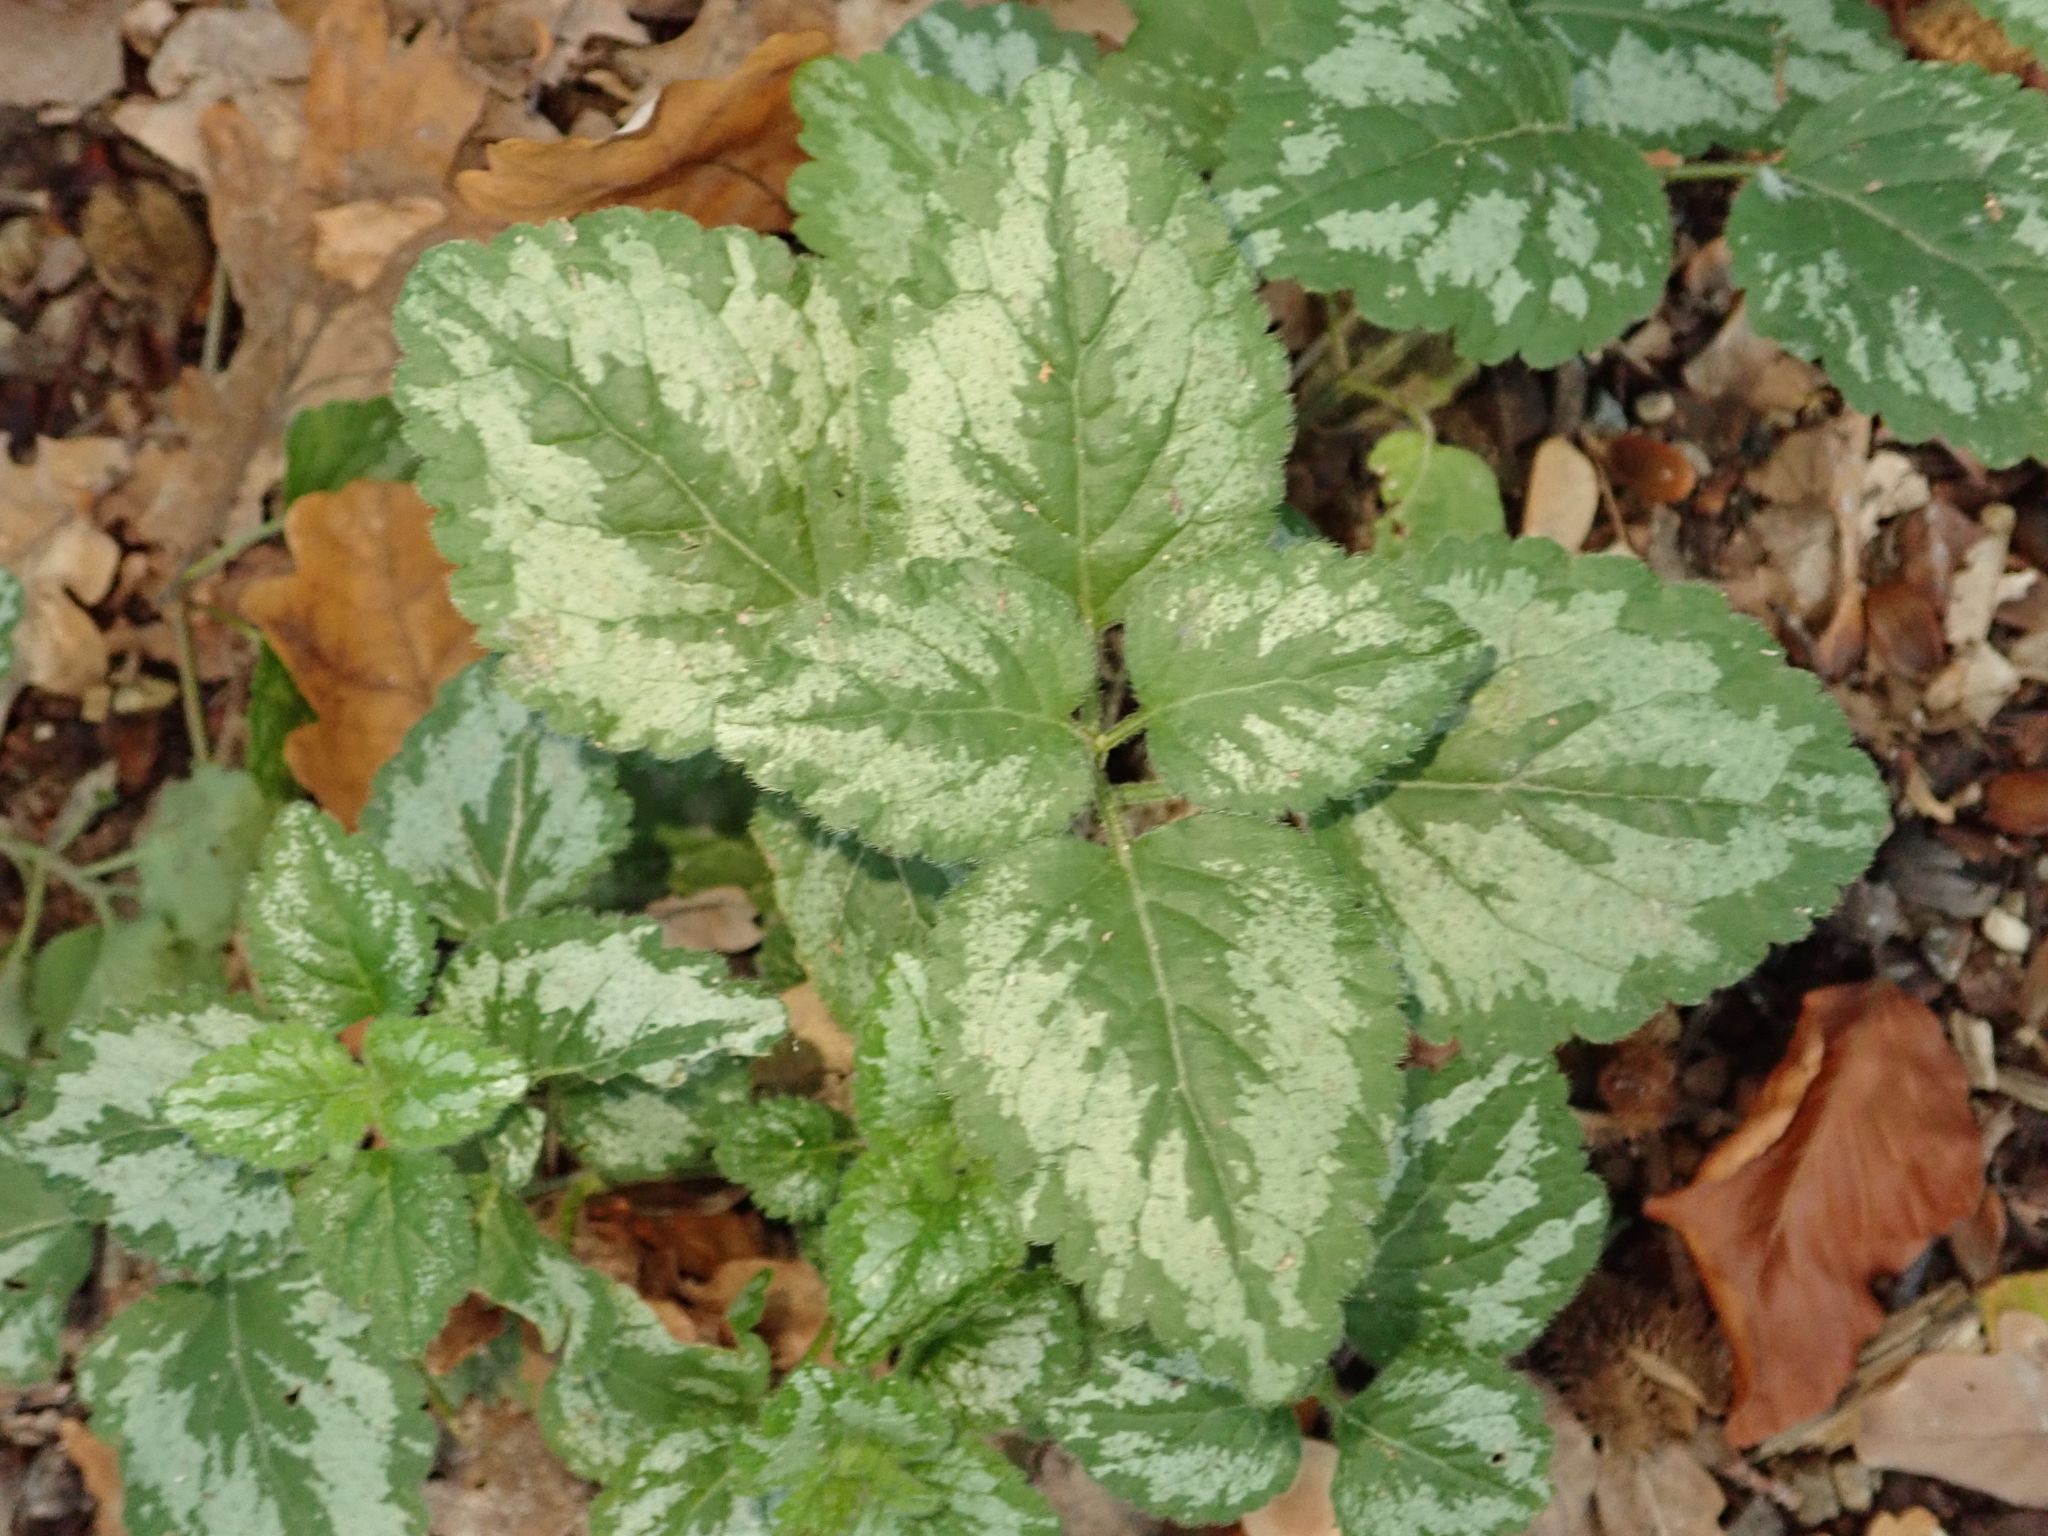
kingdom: Plantae
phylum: Tracheophyta
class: Magnoliopsida
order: Lamiales
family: Lamiaceae
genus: Lamium
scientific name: Lamium galeobdolon
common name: Yellow archangel
